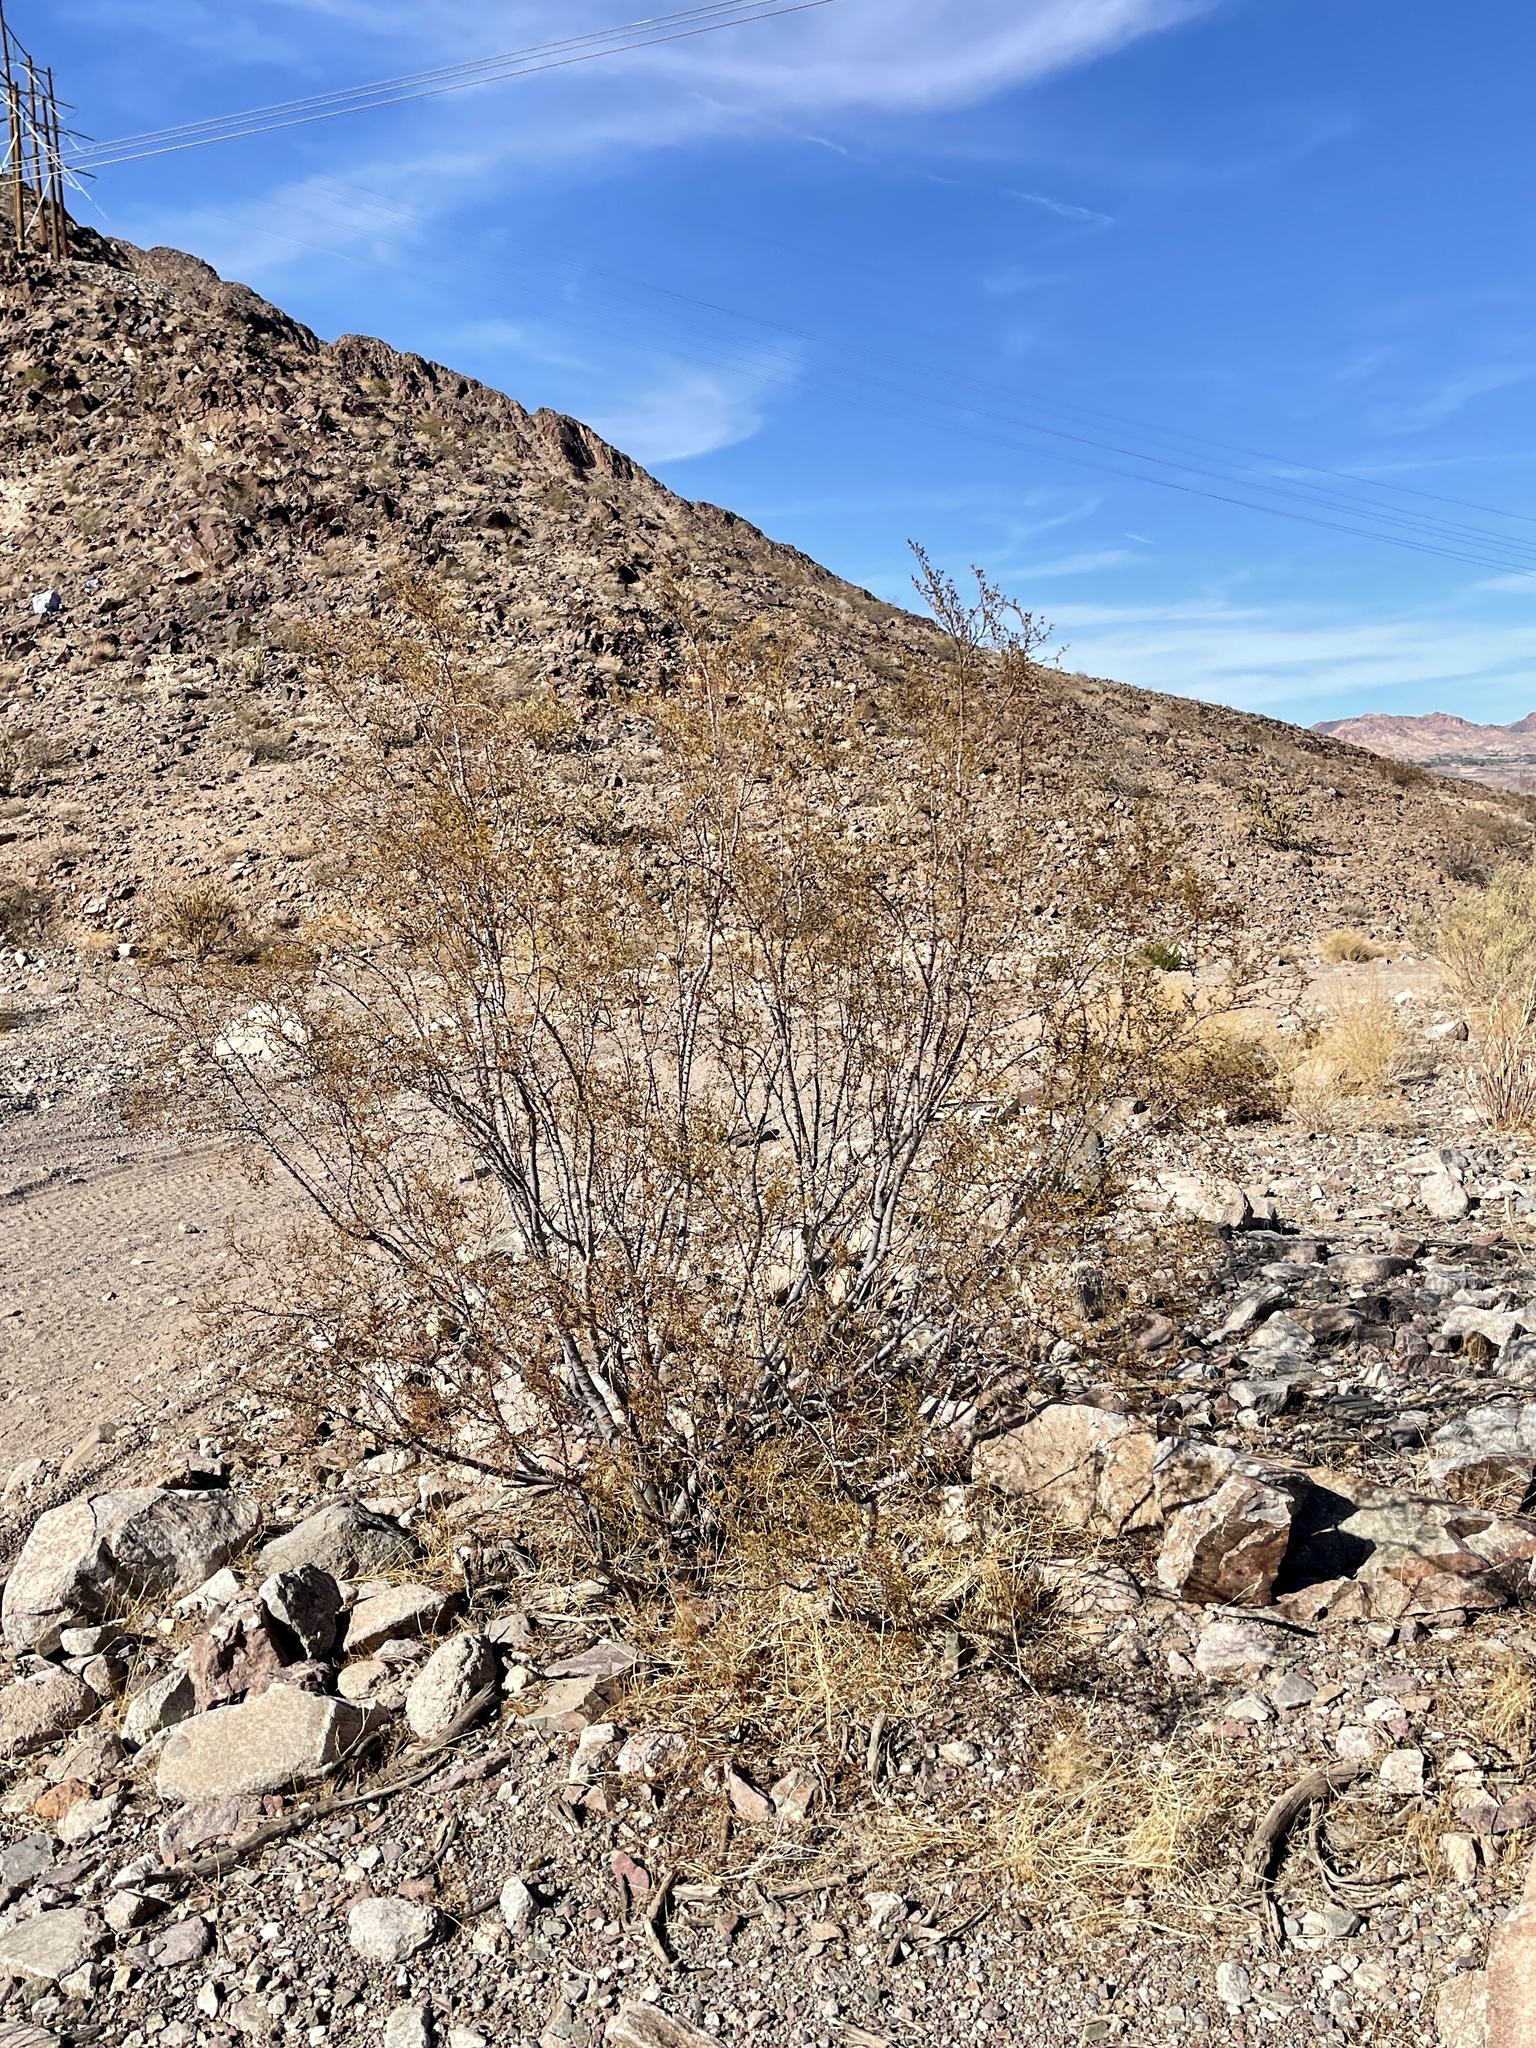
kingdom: Plantae
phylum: Tracheophyta
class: Magnoliopsida
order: Zygophyllales
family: Zygophyllaceae
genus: Larrea
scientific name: Larrea tridentata
